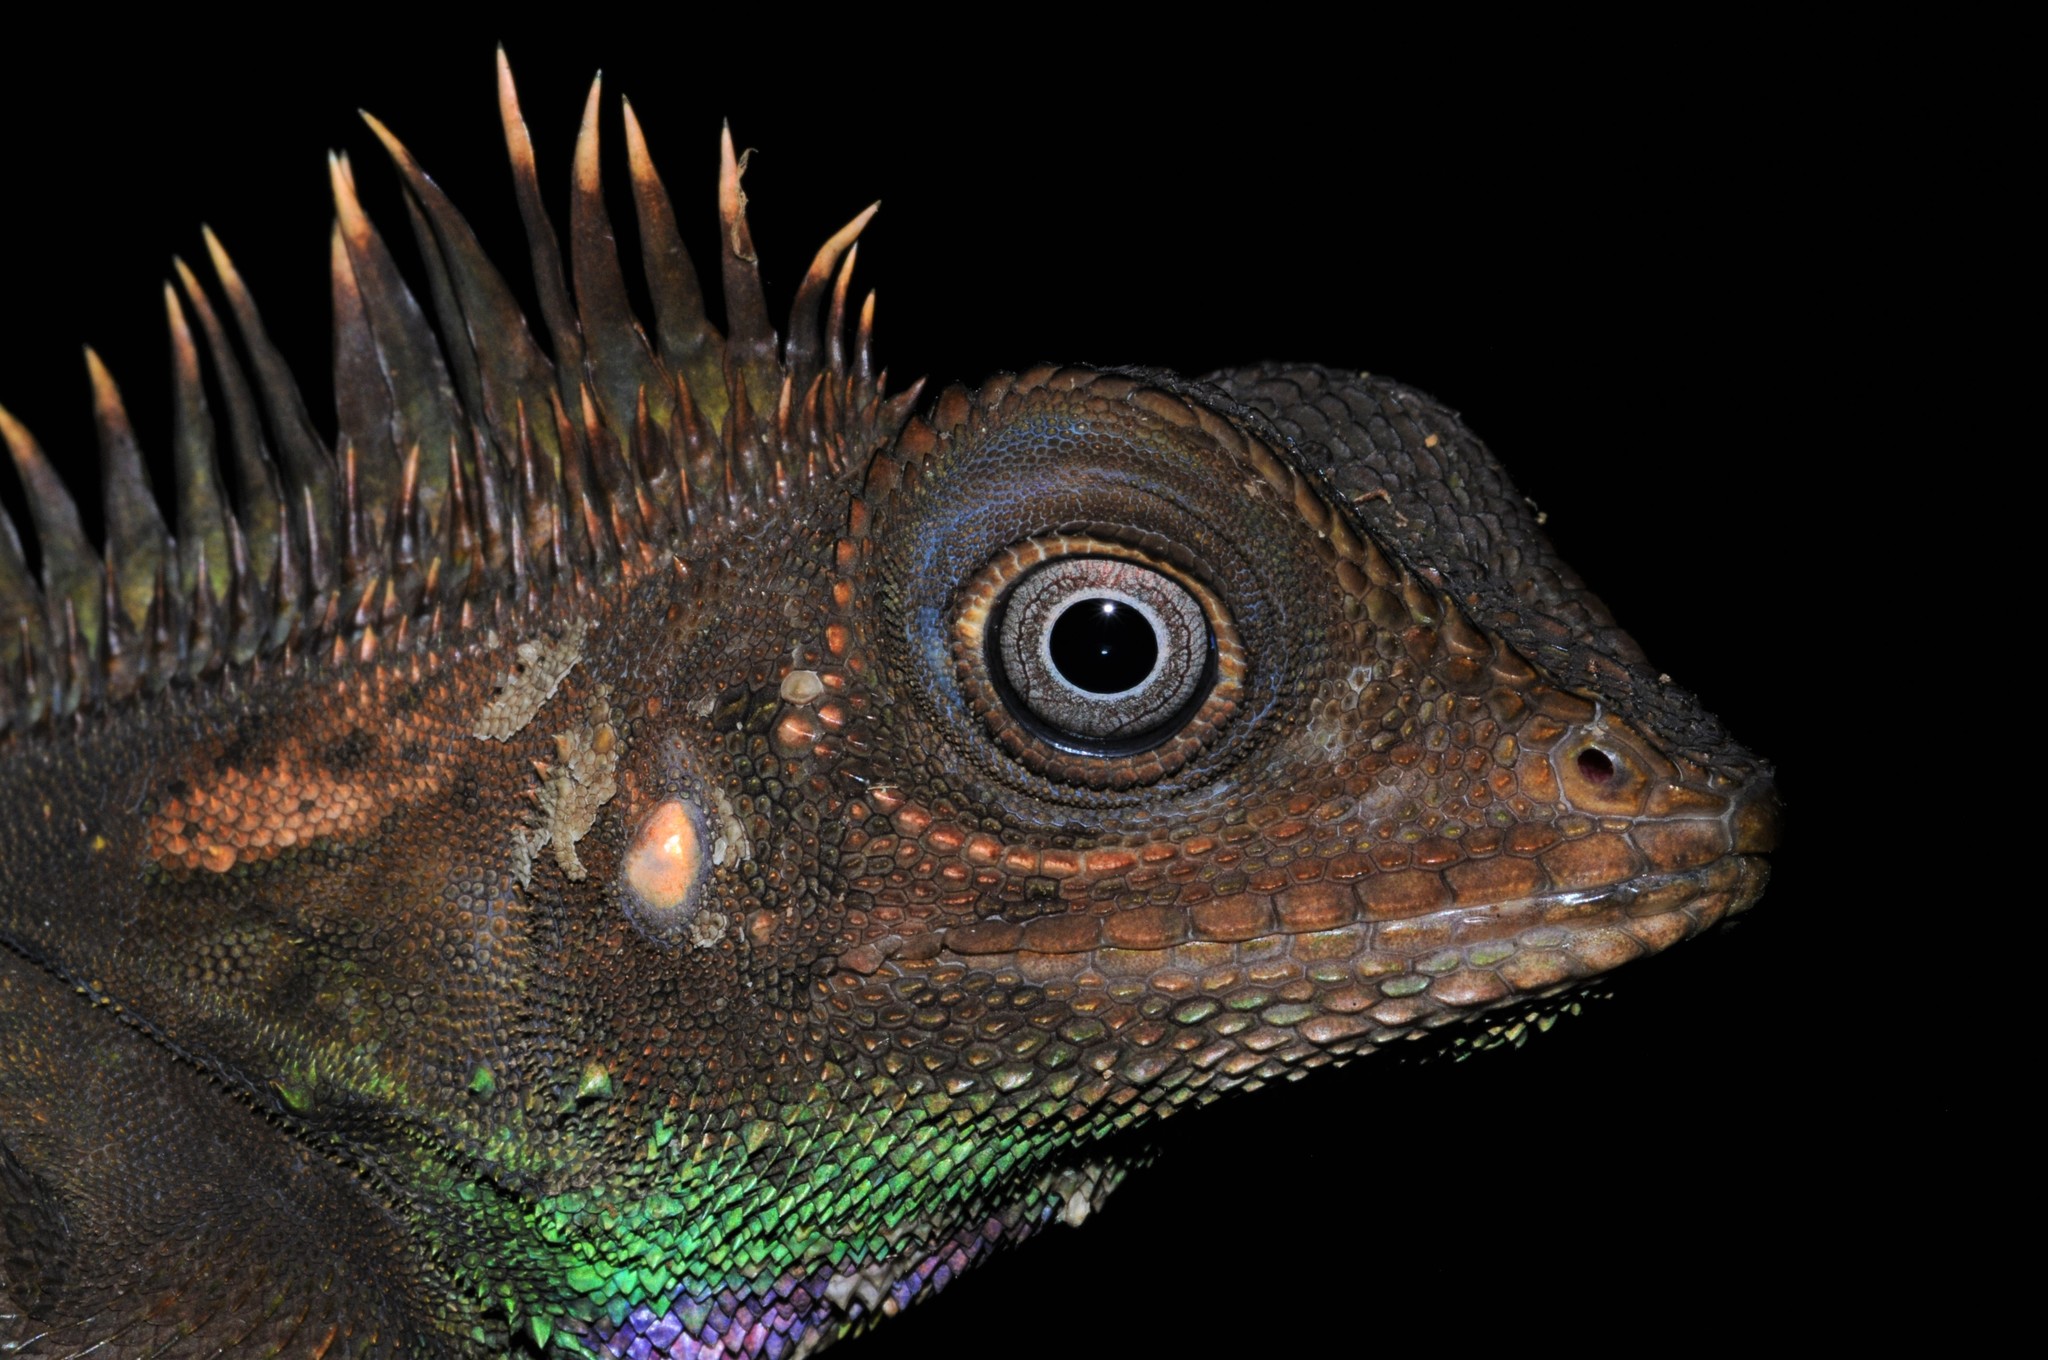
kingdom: Animalia
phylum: Chordata
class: Squamata
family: Agamidae
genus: Gonocephalus
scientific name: Gonocephalus bellii
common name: Bell's anglehead lizard
